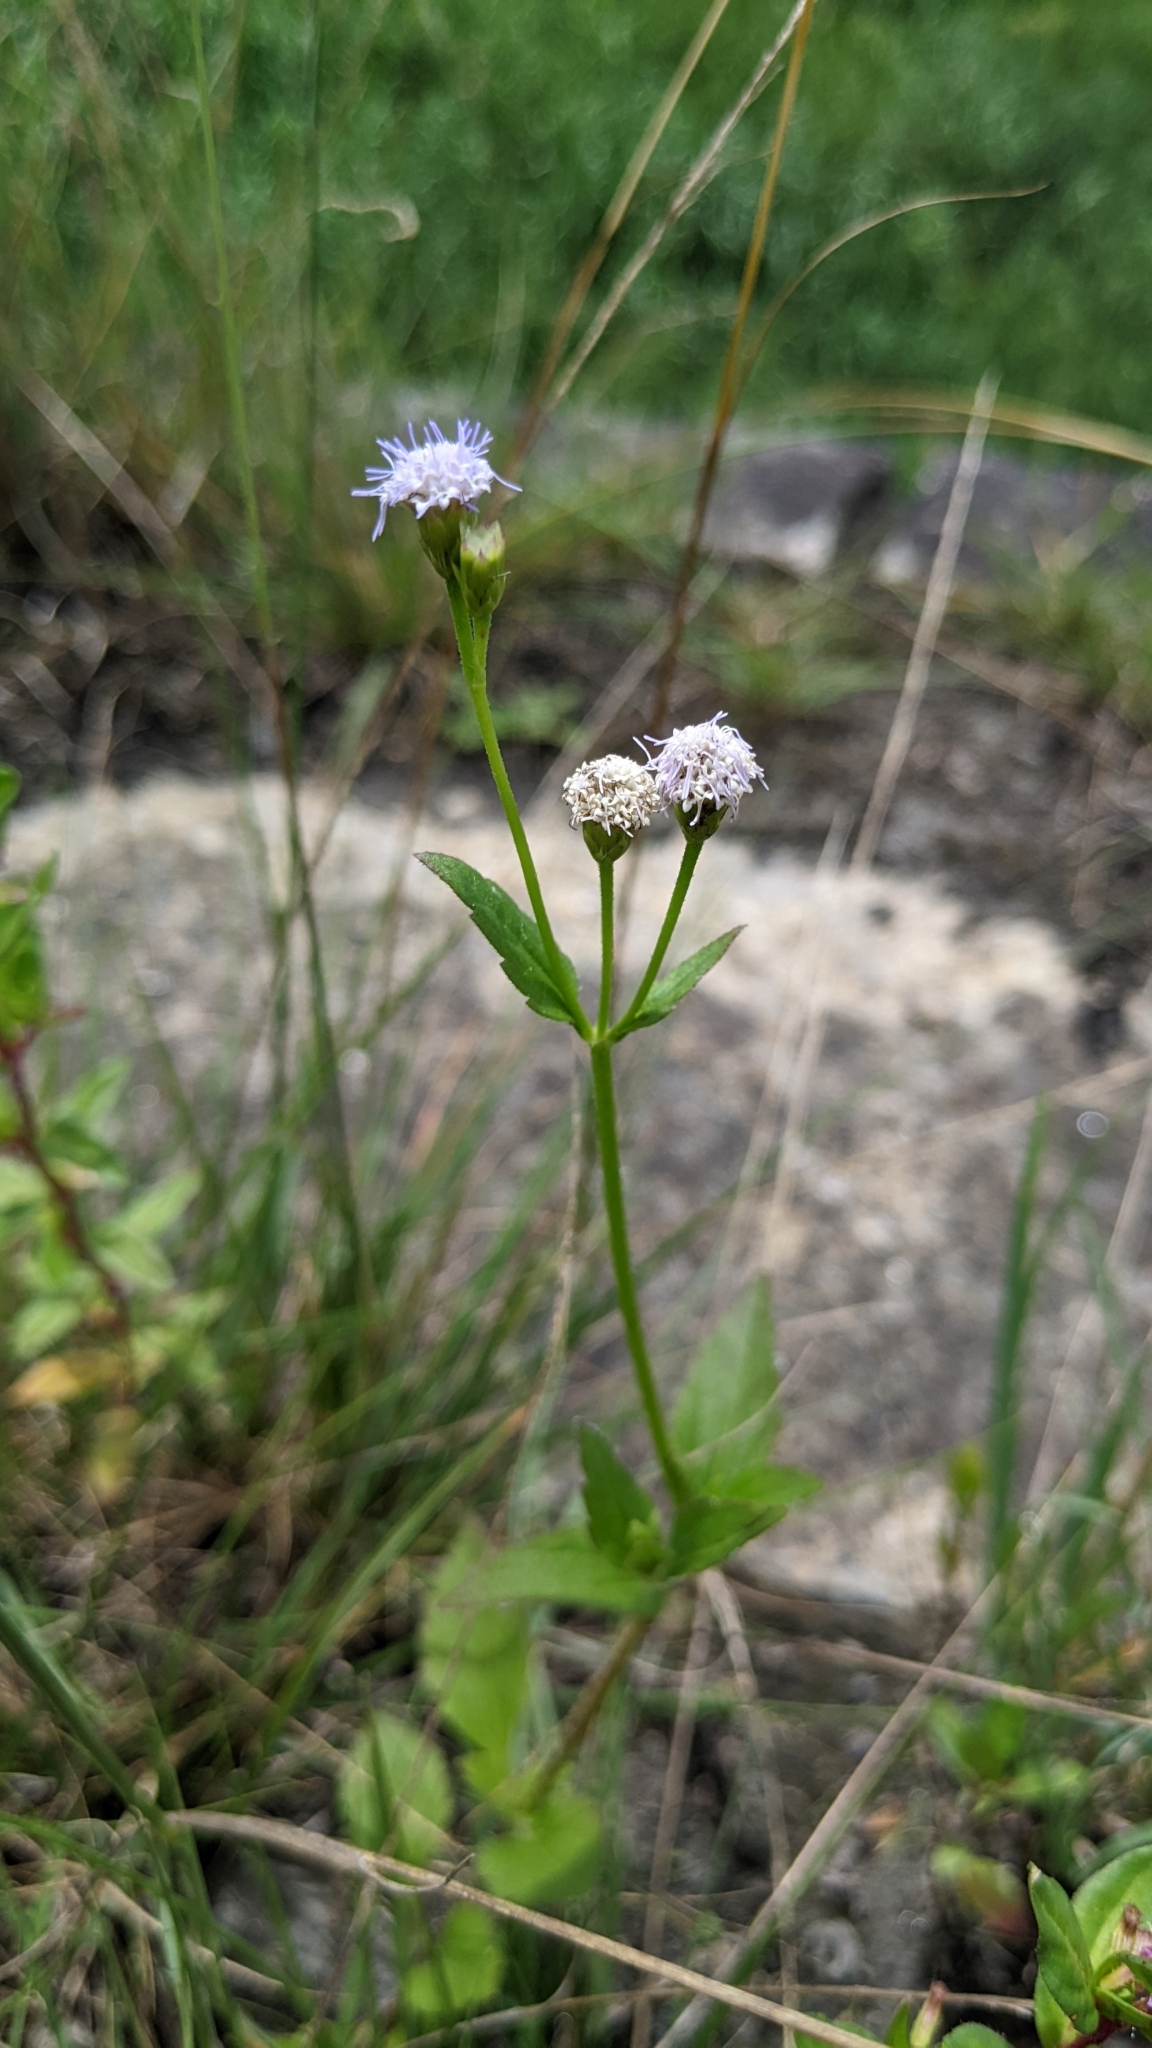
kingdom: Plantae
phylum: Tracheophyta
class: Magnoliopsida
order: Asterales
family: Asteraceae
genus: Praxelis
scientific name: Praxelis clematidea
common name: Praxelis
